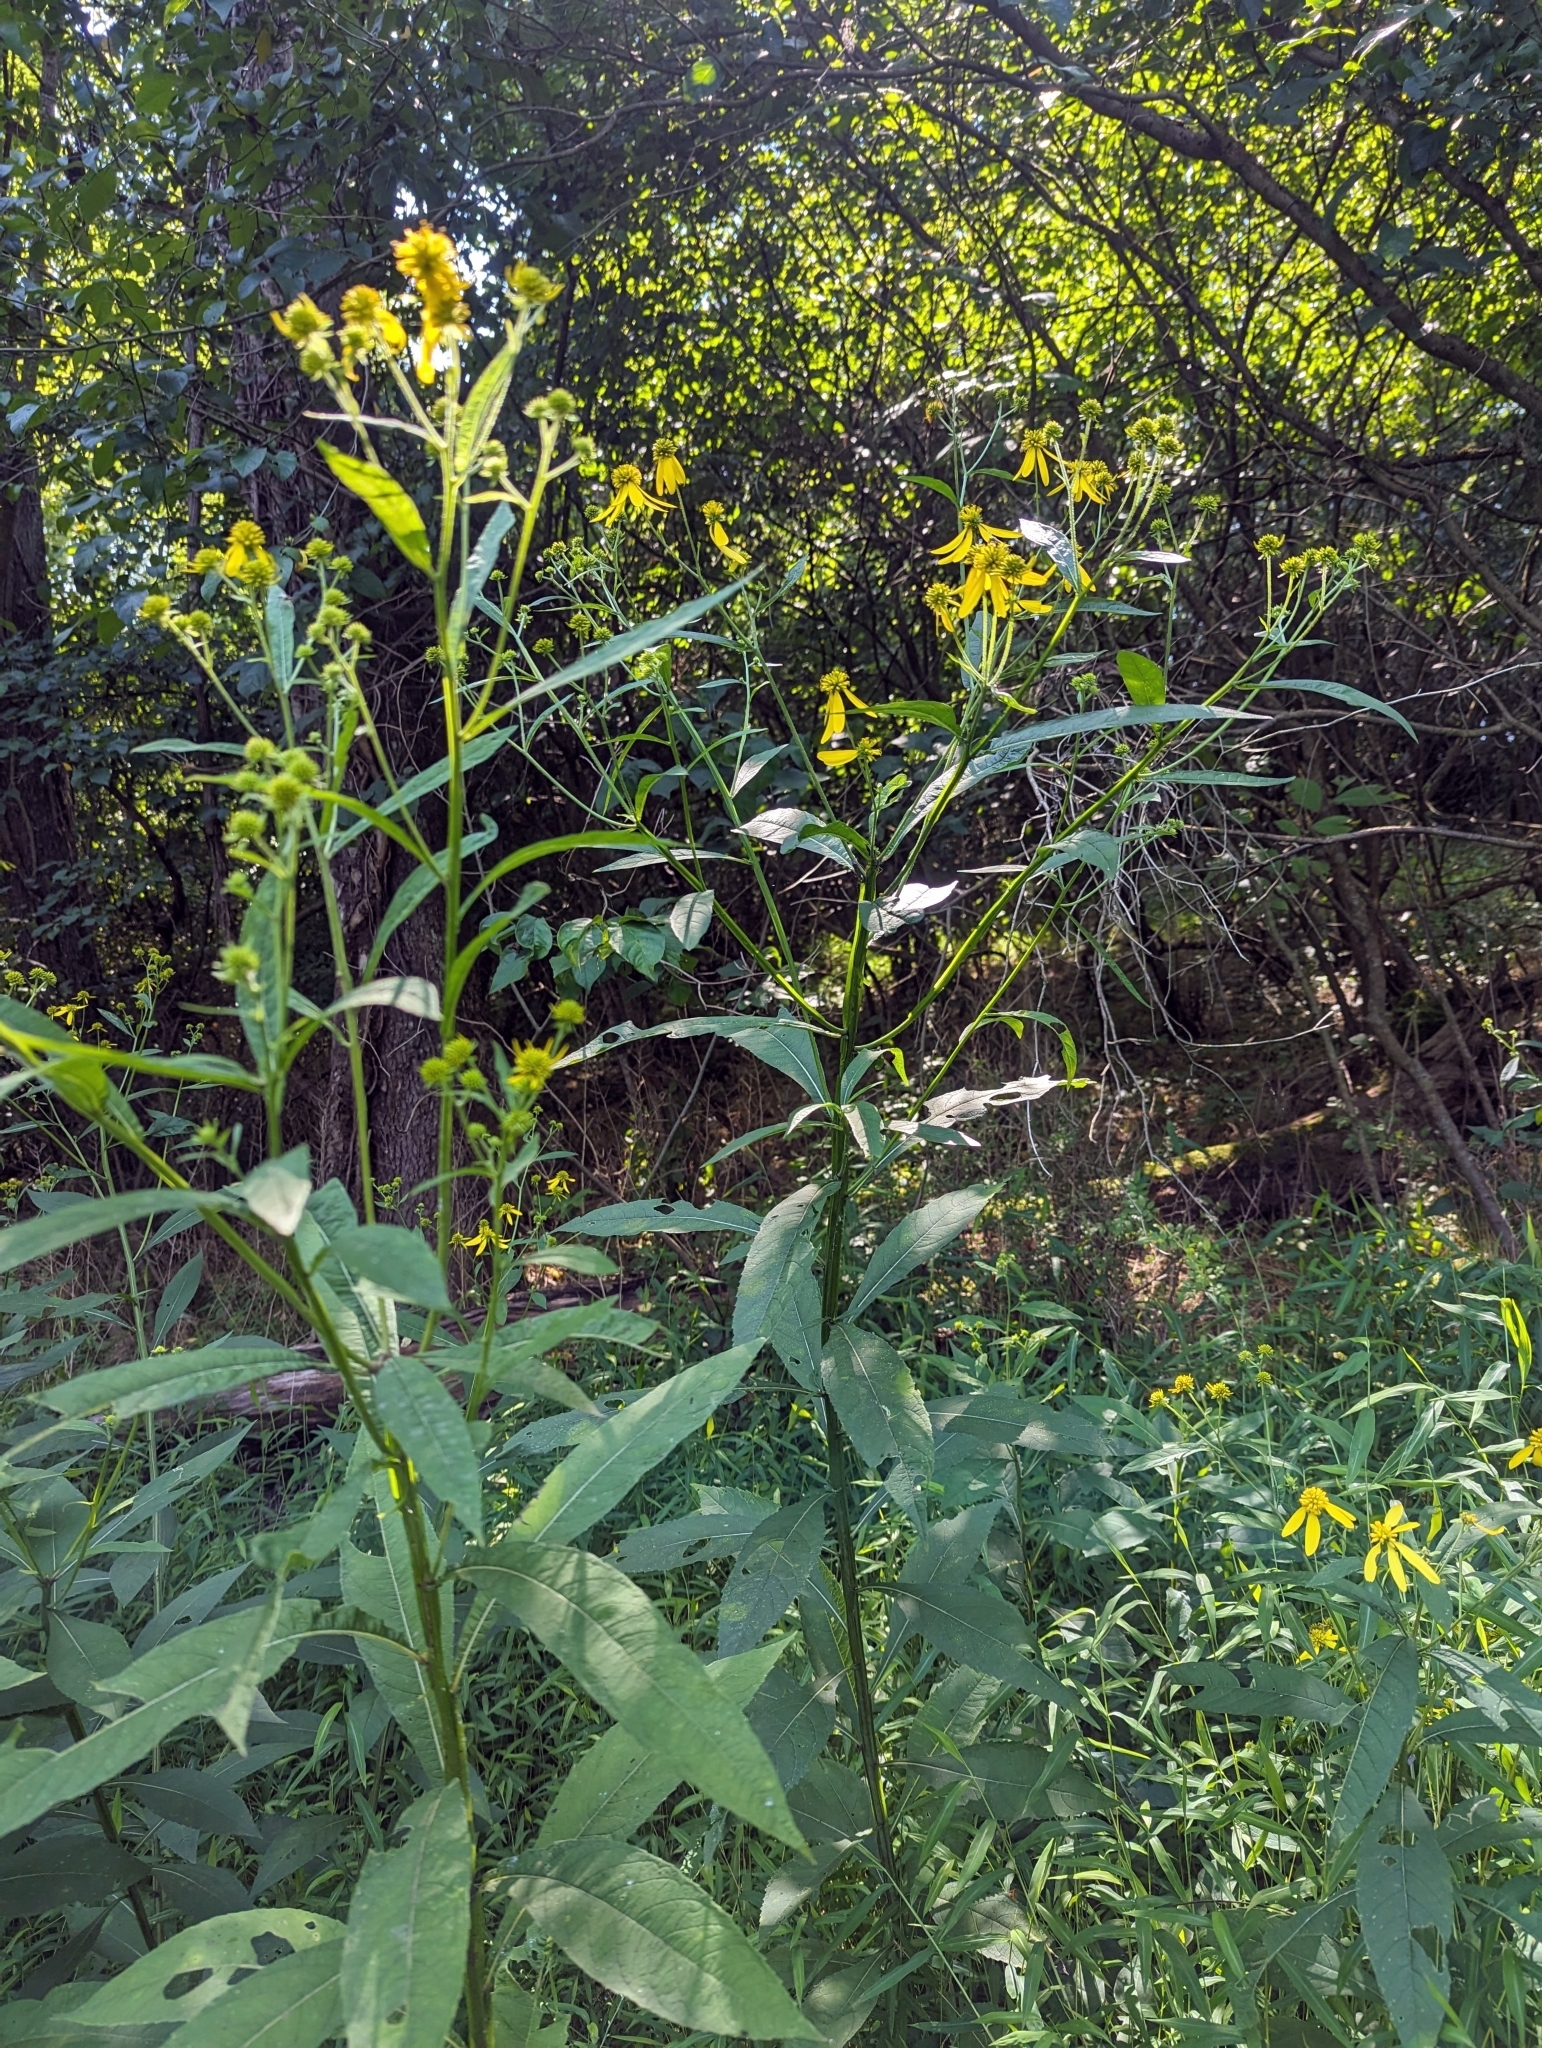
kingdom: Plantae
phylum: Tracheophyta
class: Magnoliopsida
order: Asterales
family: Asteraceae
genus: Verbesina
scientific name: Verbesina alternifolia
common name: Wingstem
